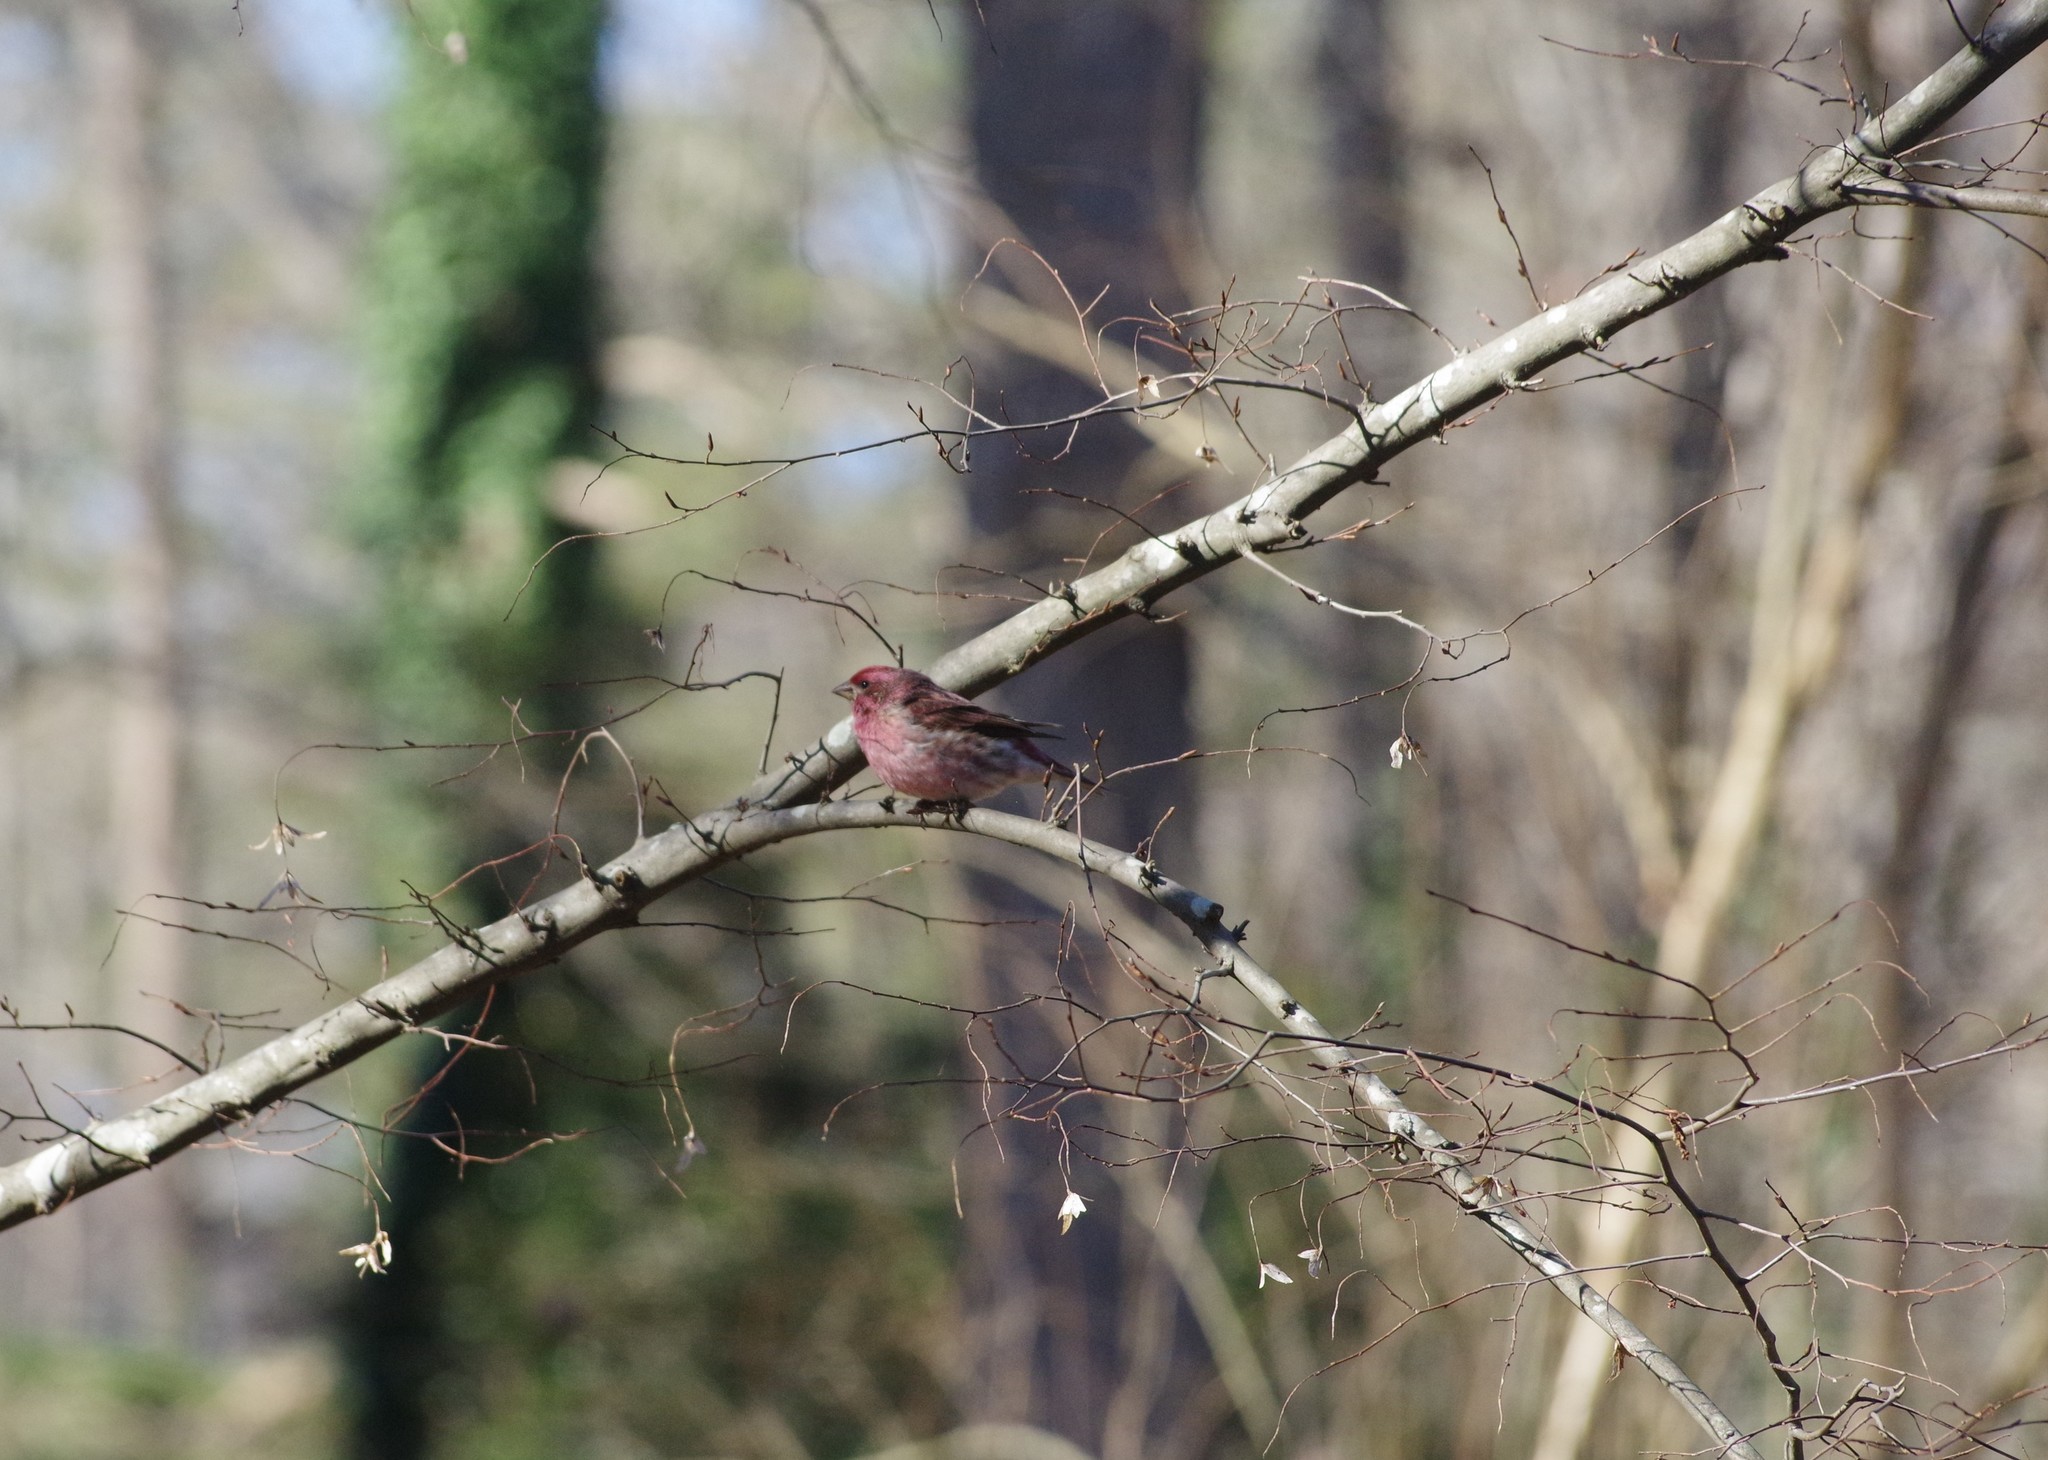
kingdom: Animalia
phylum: Chordata
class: Aves
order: Passeriformes
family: Fringillidae
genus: Haemorhous
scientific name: Haemorhous purpureus
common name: Purple finch
